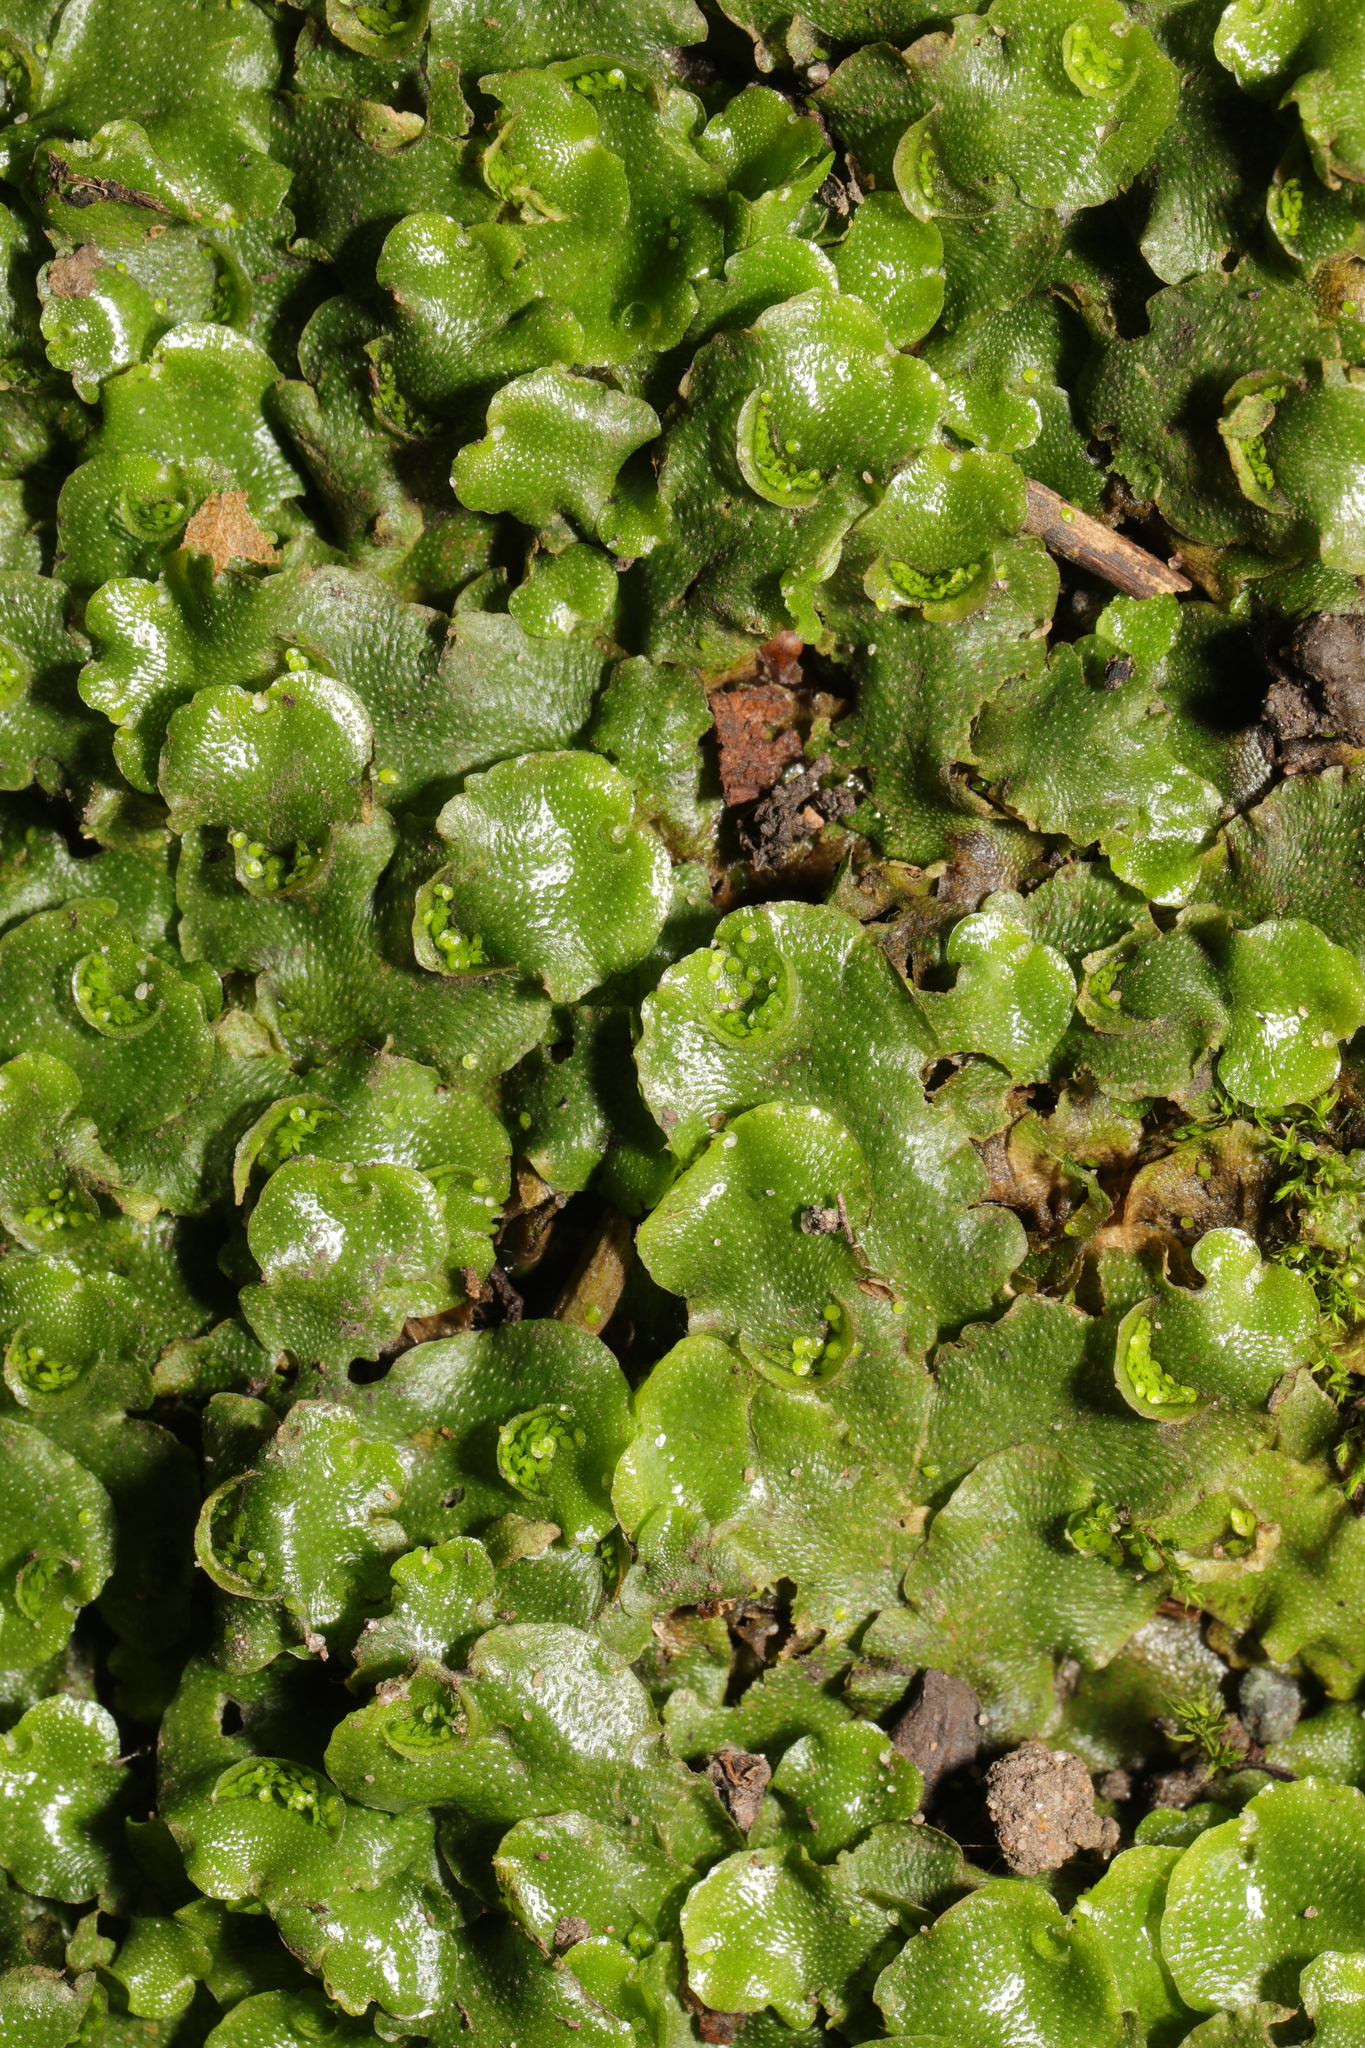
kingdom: Plantae
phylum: Marchantiophyta
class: Marchantiopsida
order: Lunulariales
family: Lunulariaceae
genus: Lunularia
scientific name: Lunularia cruciata
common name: Crescent-cup liverwort
